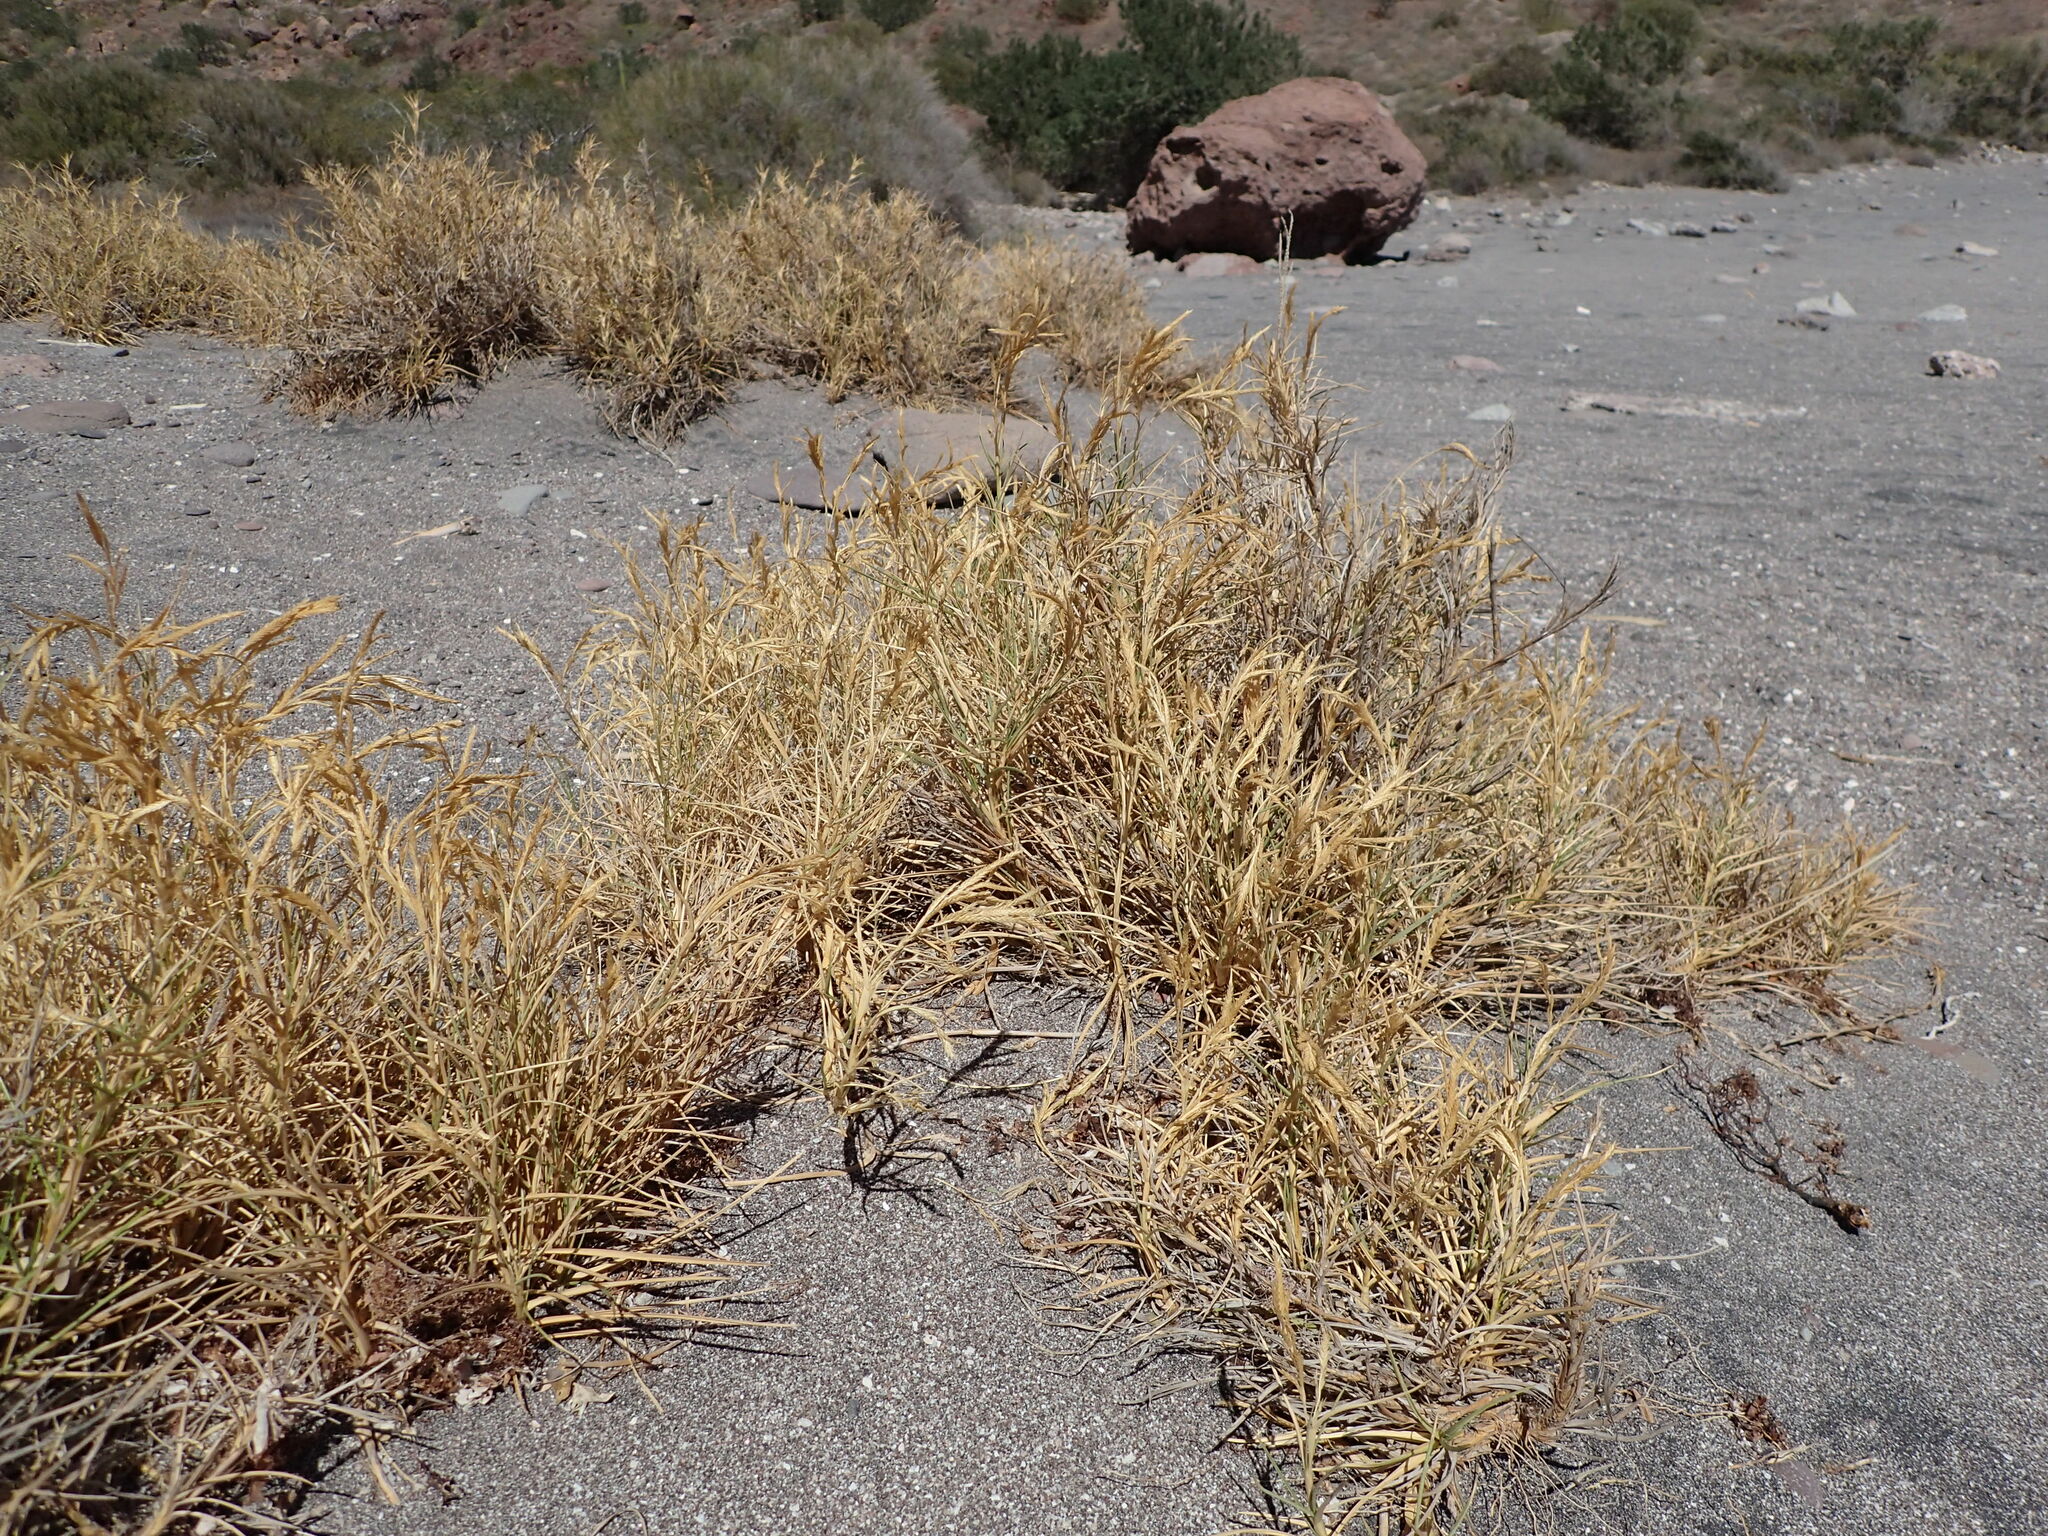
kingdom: Plantae
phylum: Tracheophyta
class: Liliopsida
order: Poales
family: Poaceae
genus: Jouvea
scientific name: Jouvea pilosa
